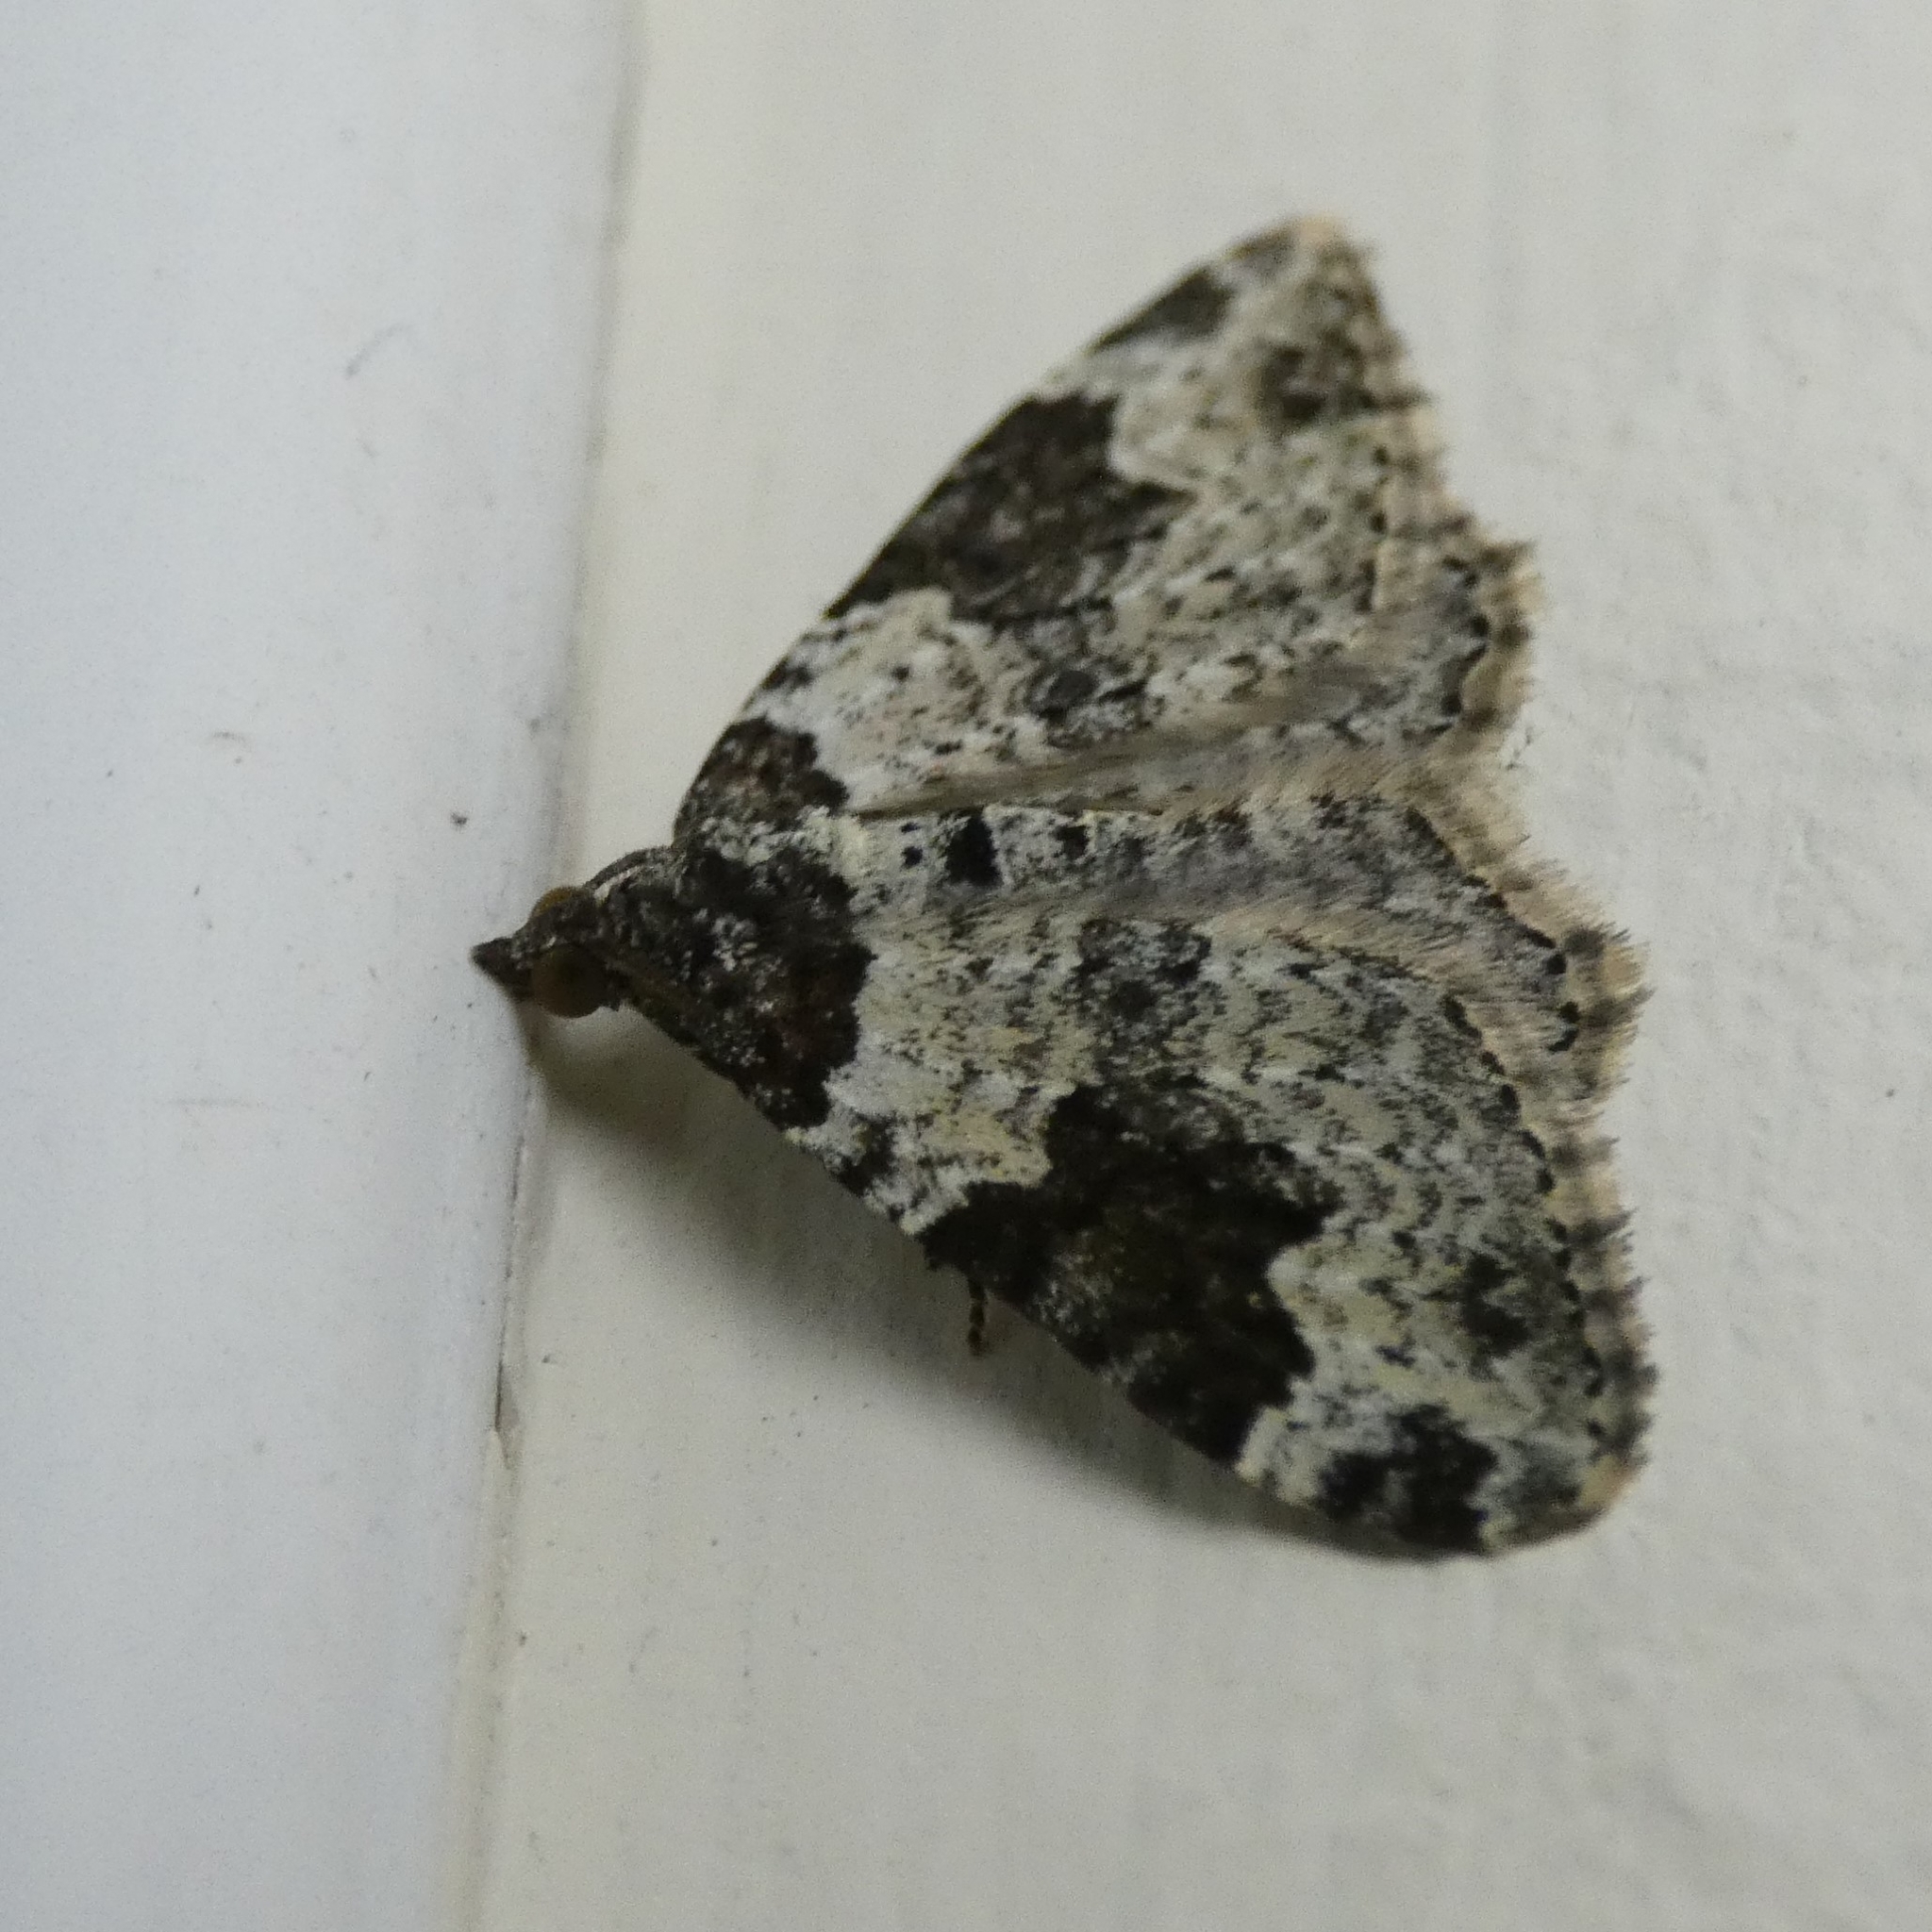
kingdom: Animalia
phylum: Arthropoda
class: Insecta
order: Lepidoptera
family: Geometridae
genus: Xanthorhoe
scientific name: Xanthorhoe fluctuata
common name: Garden carpet
